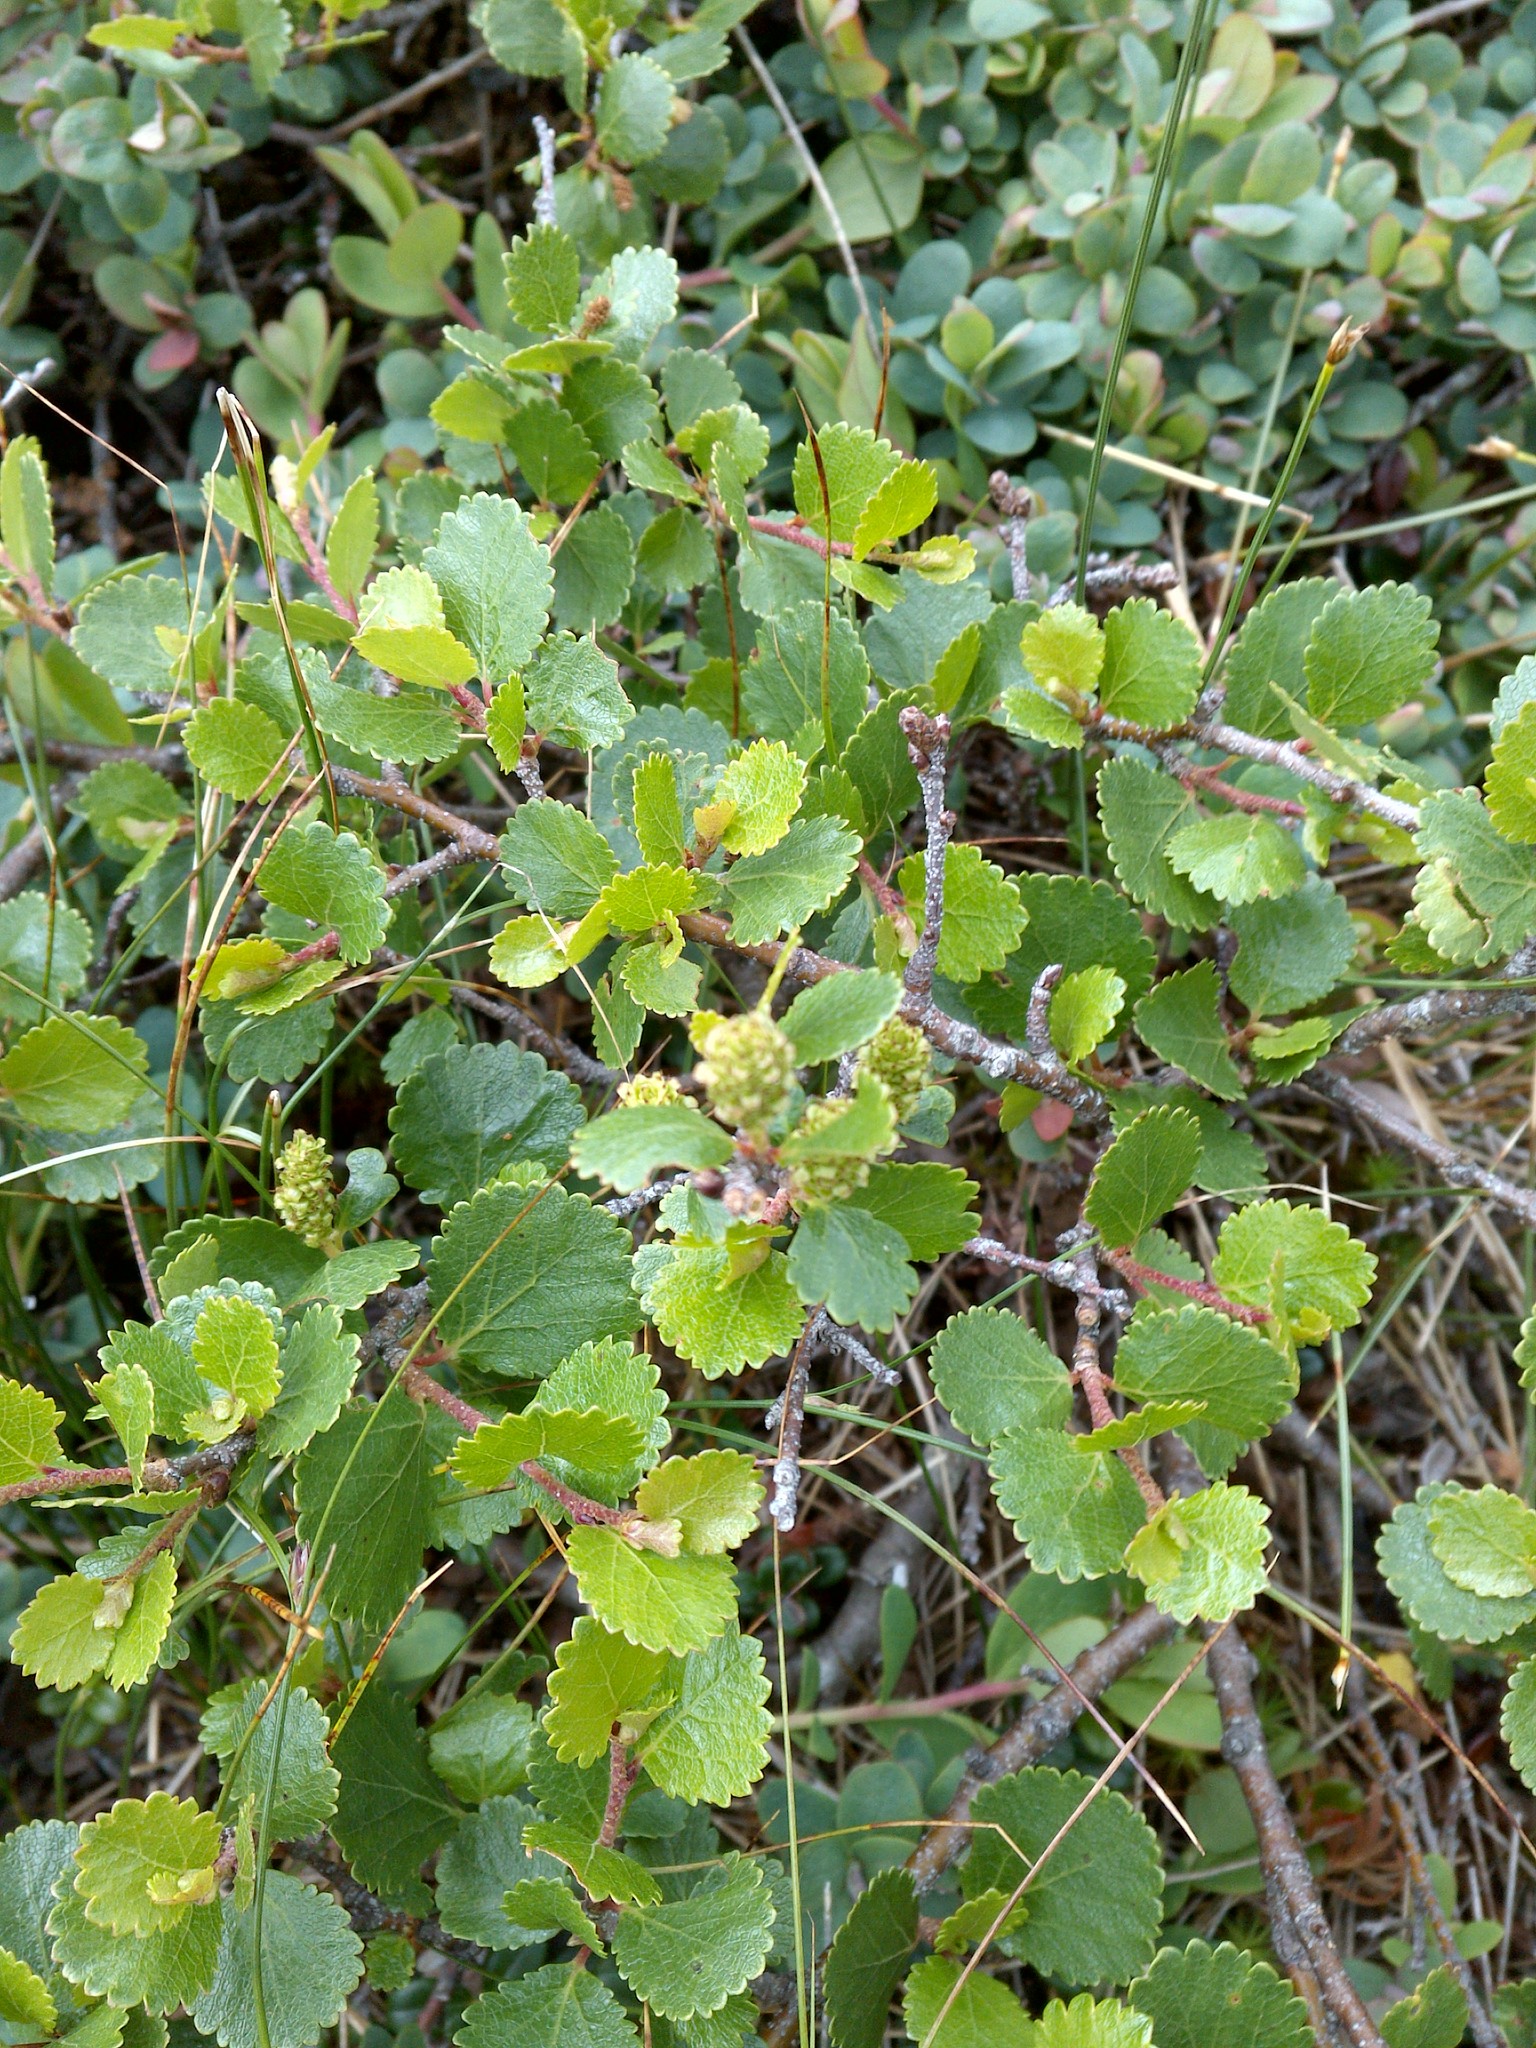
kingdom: Plantae
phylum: Tracheophyta
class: Magnoliopsida
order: Fagales
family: Betulaceae
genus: Betula
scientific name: Betula glandulosa
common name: Dwarf birch
